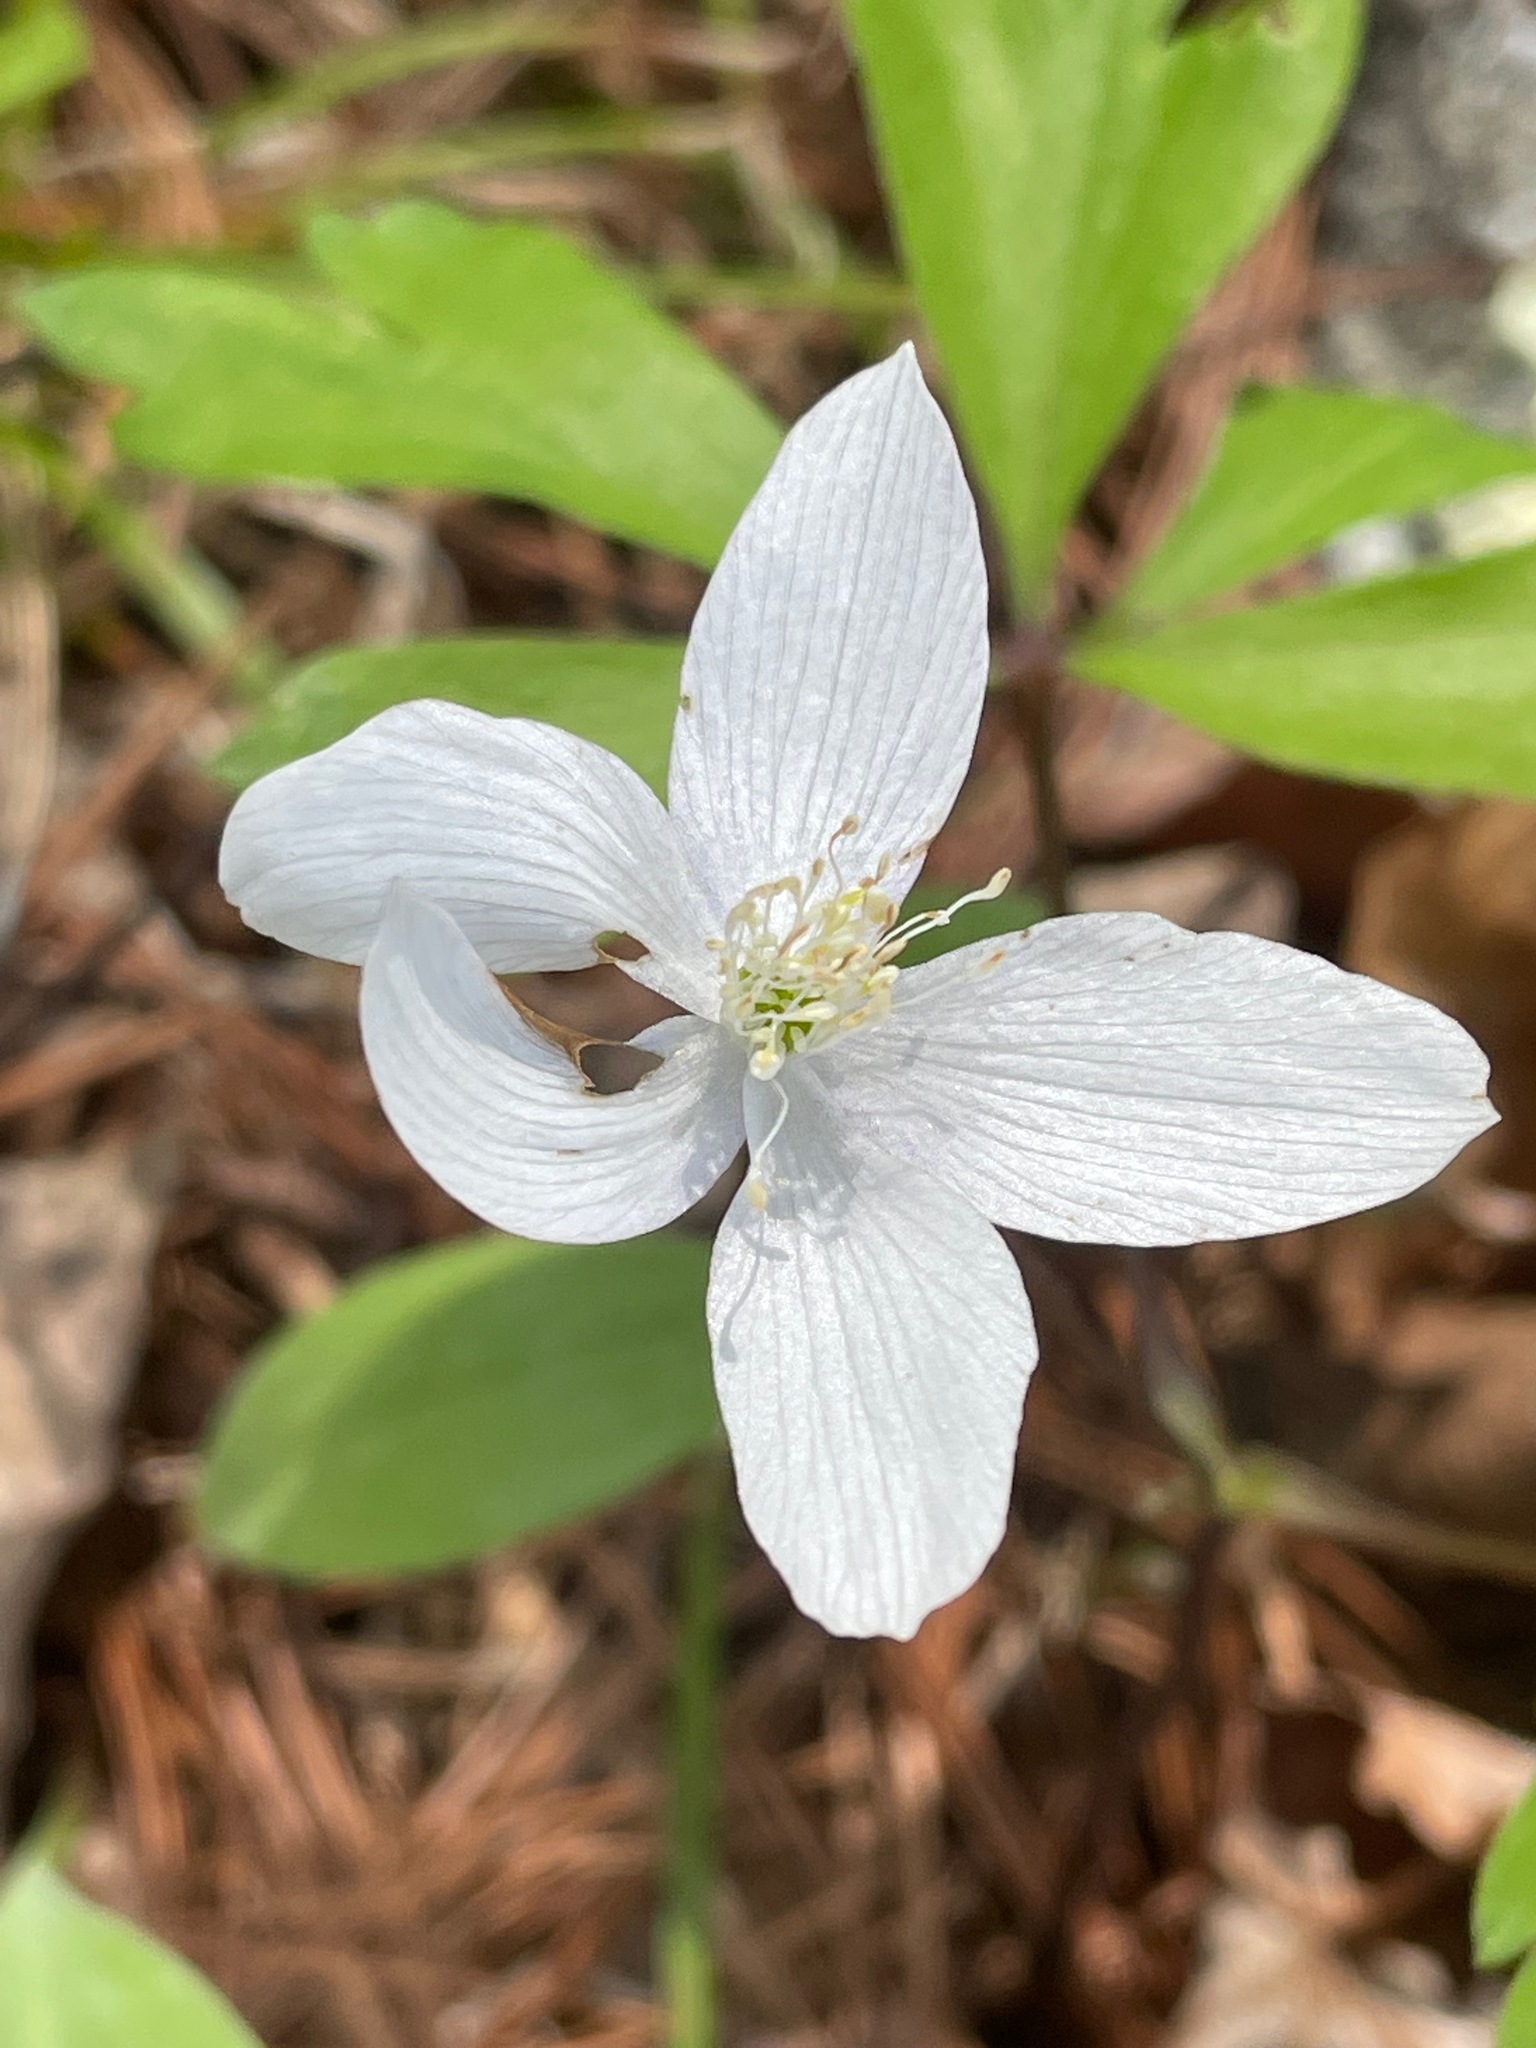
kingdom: Plantae
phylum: Tracheophyta
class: Magnoliopsida
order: Ranunculales
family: Ranunculaceae
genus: Anemone
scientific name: Anemone quinquefolia
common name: Wood anemone
